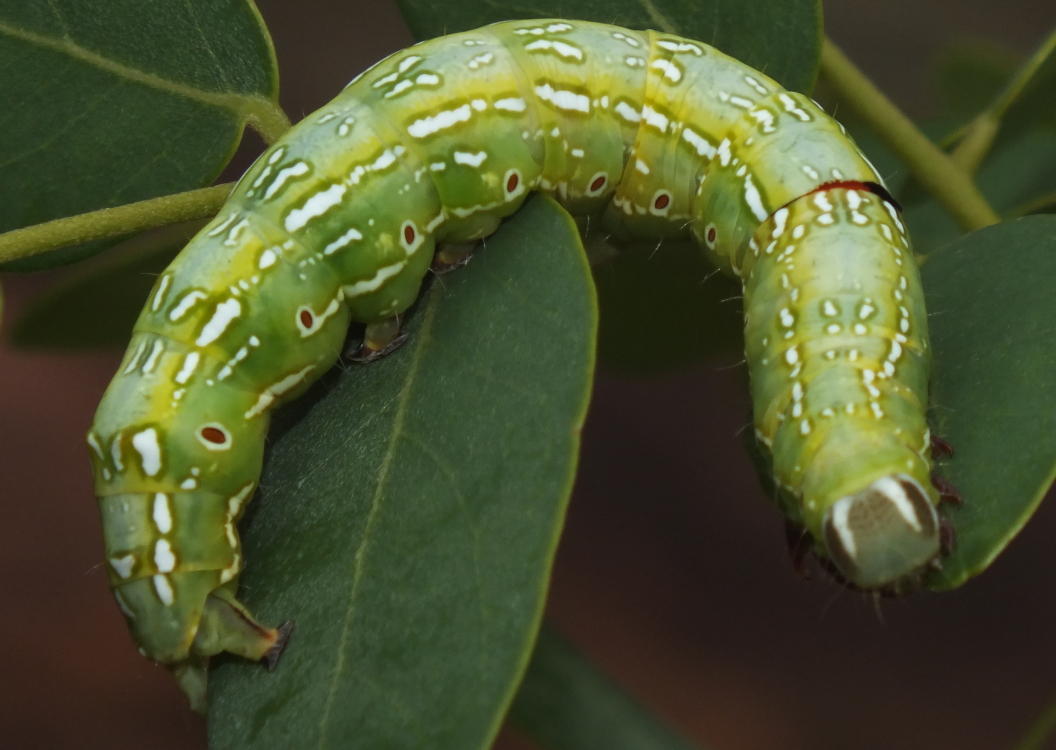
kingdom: Animalia
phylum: Arthropoda
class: Insecta
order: Lepidoptera
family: Erebidae
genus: Sphingomorpha
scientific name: Sphingomorpha chlorea
